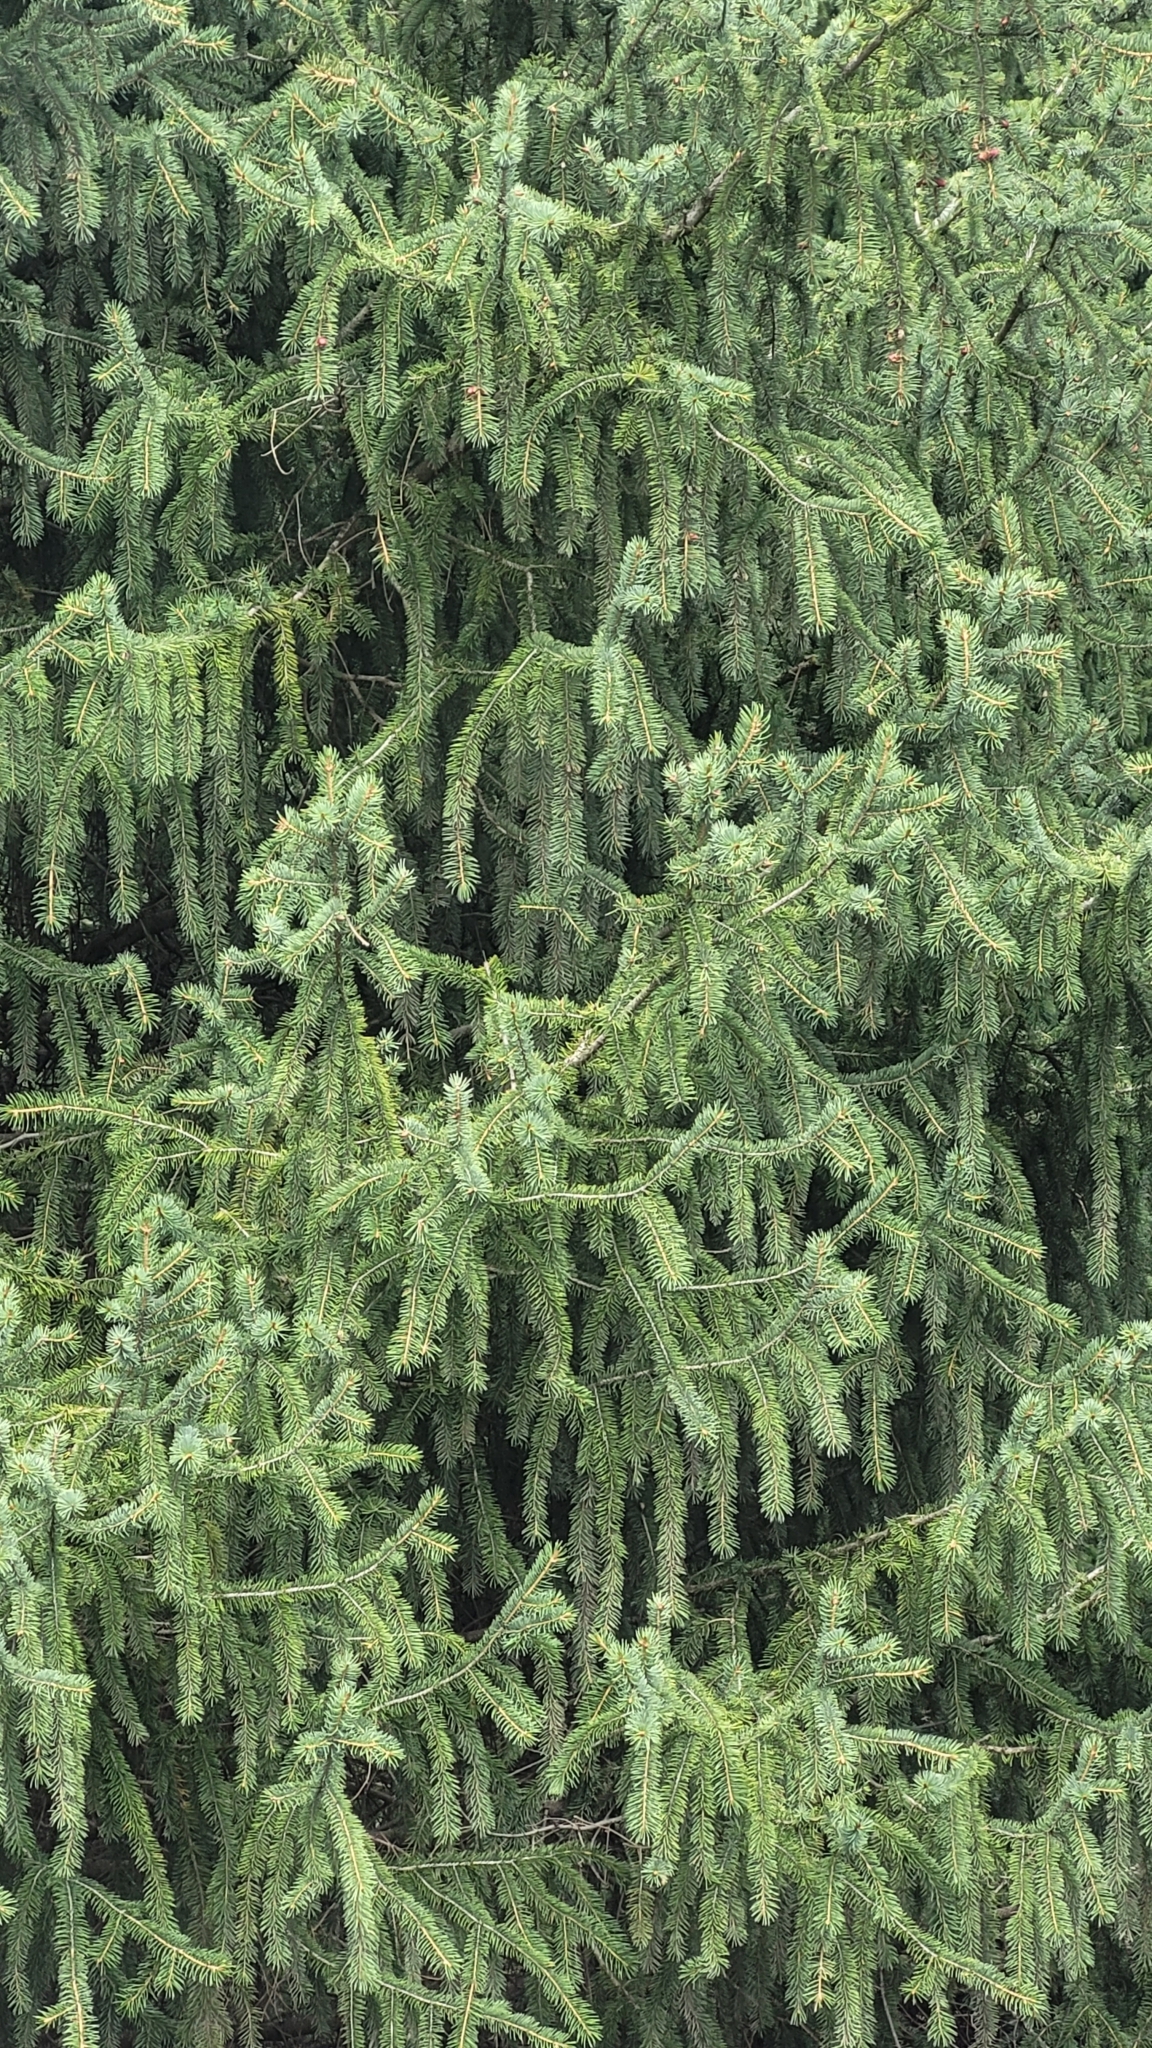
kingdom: Plantae
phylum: Tracheophyta
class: Pinopsida
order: Pinales
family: Pinaceae
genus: Picea
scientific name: Picea schrenkiana
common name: Asian spruce
